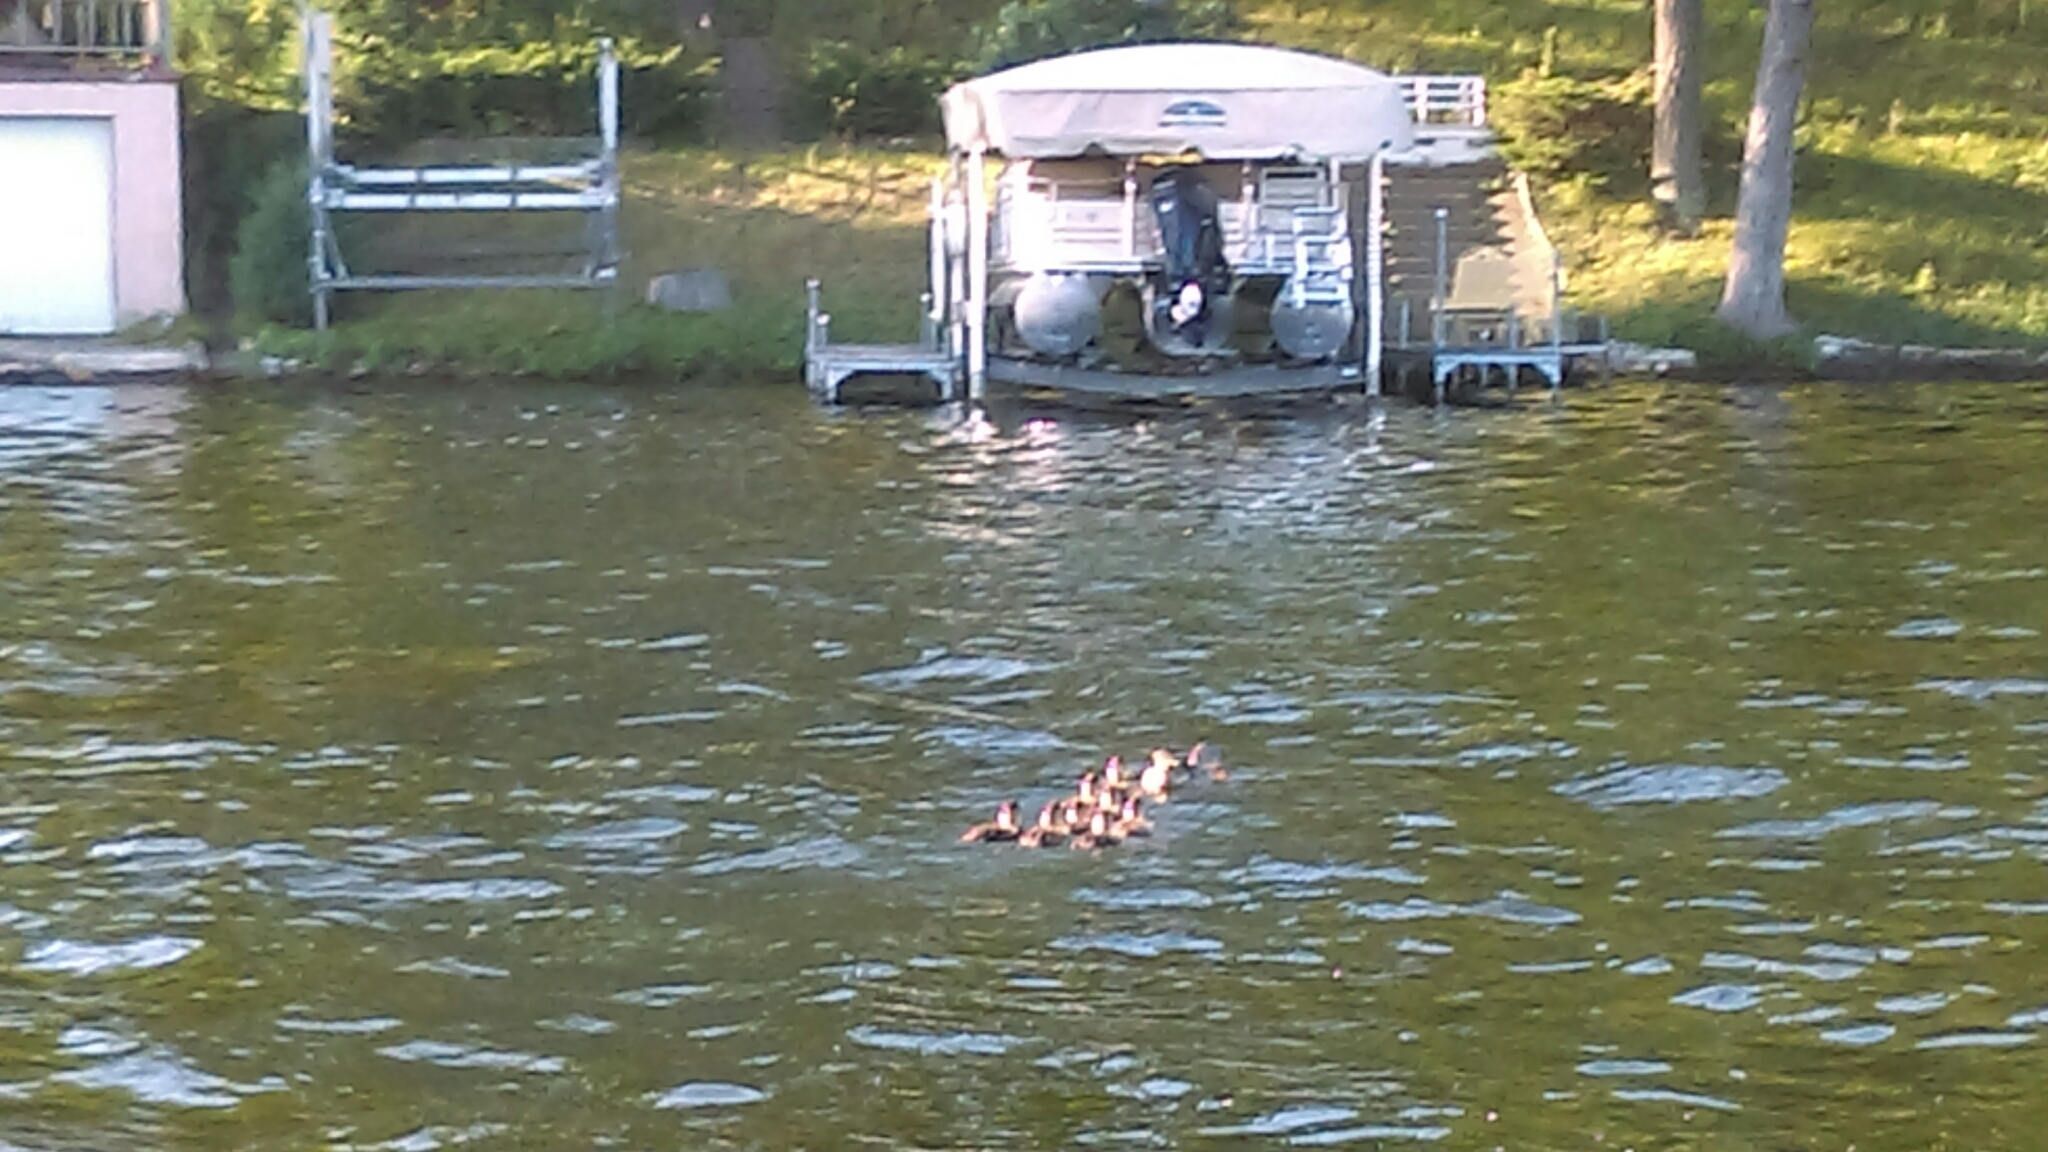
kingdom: Animalia
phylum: Chordata
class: Aves
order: Anseriformes
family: Anatidae
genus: Anas
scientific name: Anas platyrhynchos
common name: Mallard
